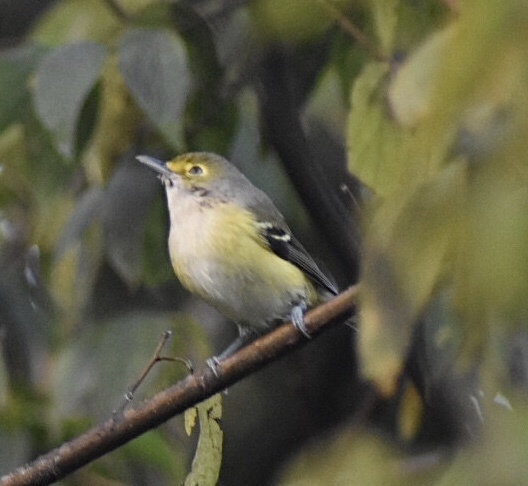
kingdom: Animalia
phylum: Chordata
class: Aves
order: Passeriformes
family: Vireonidae
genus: Vireo
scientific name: Vireo griseus
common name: White-eyed vireo
